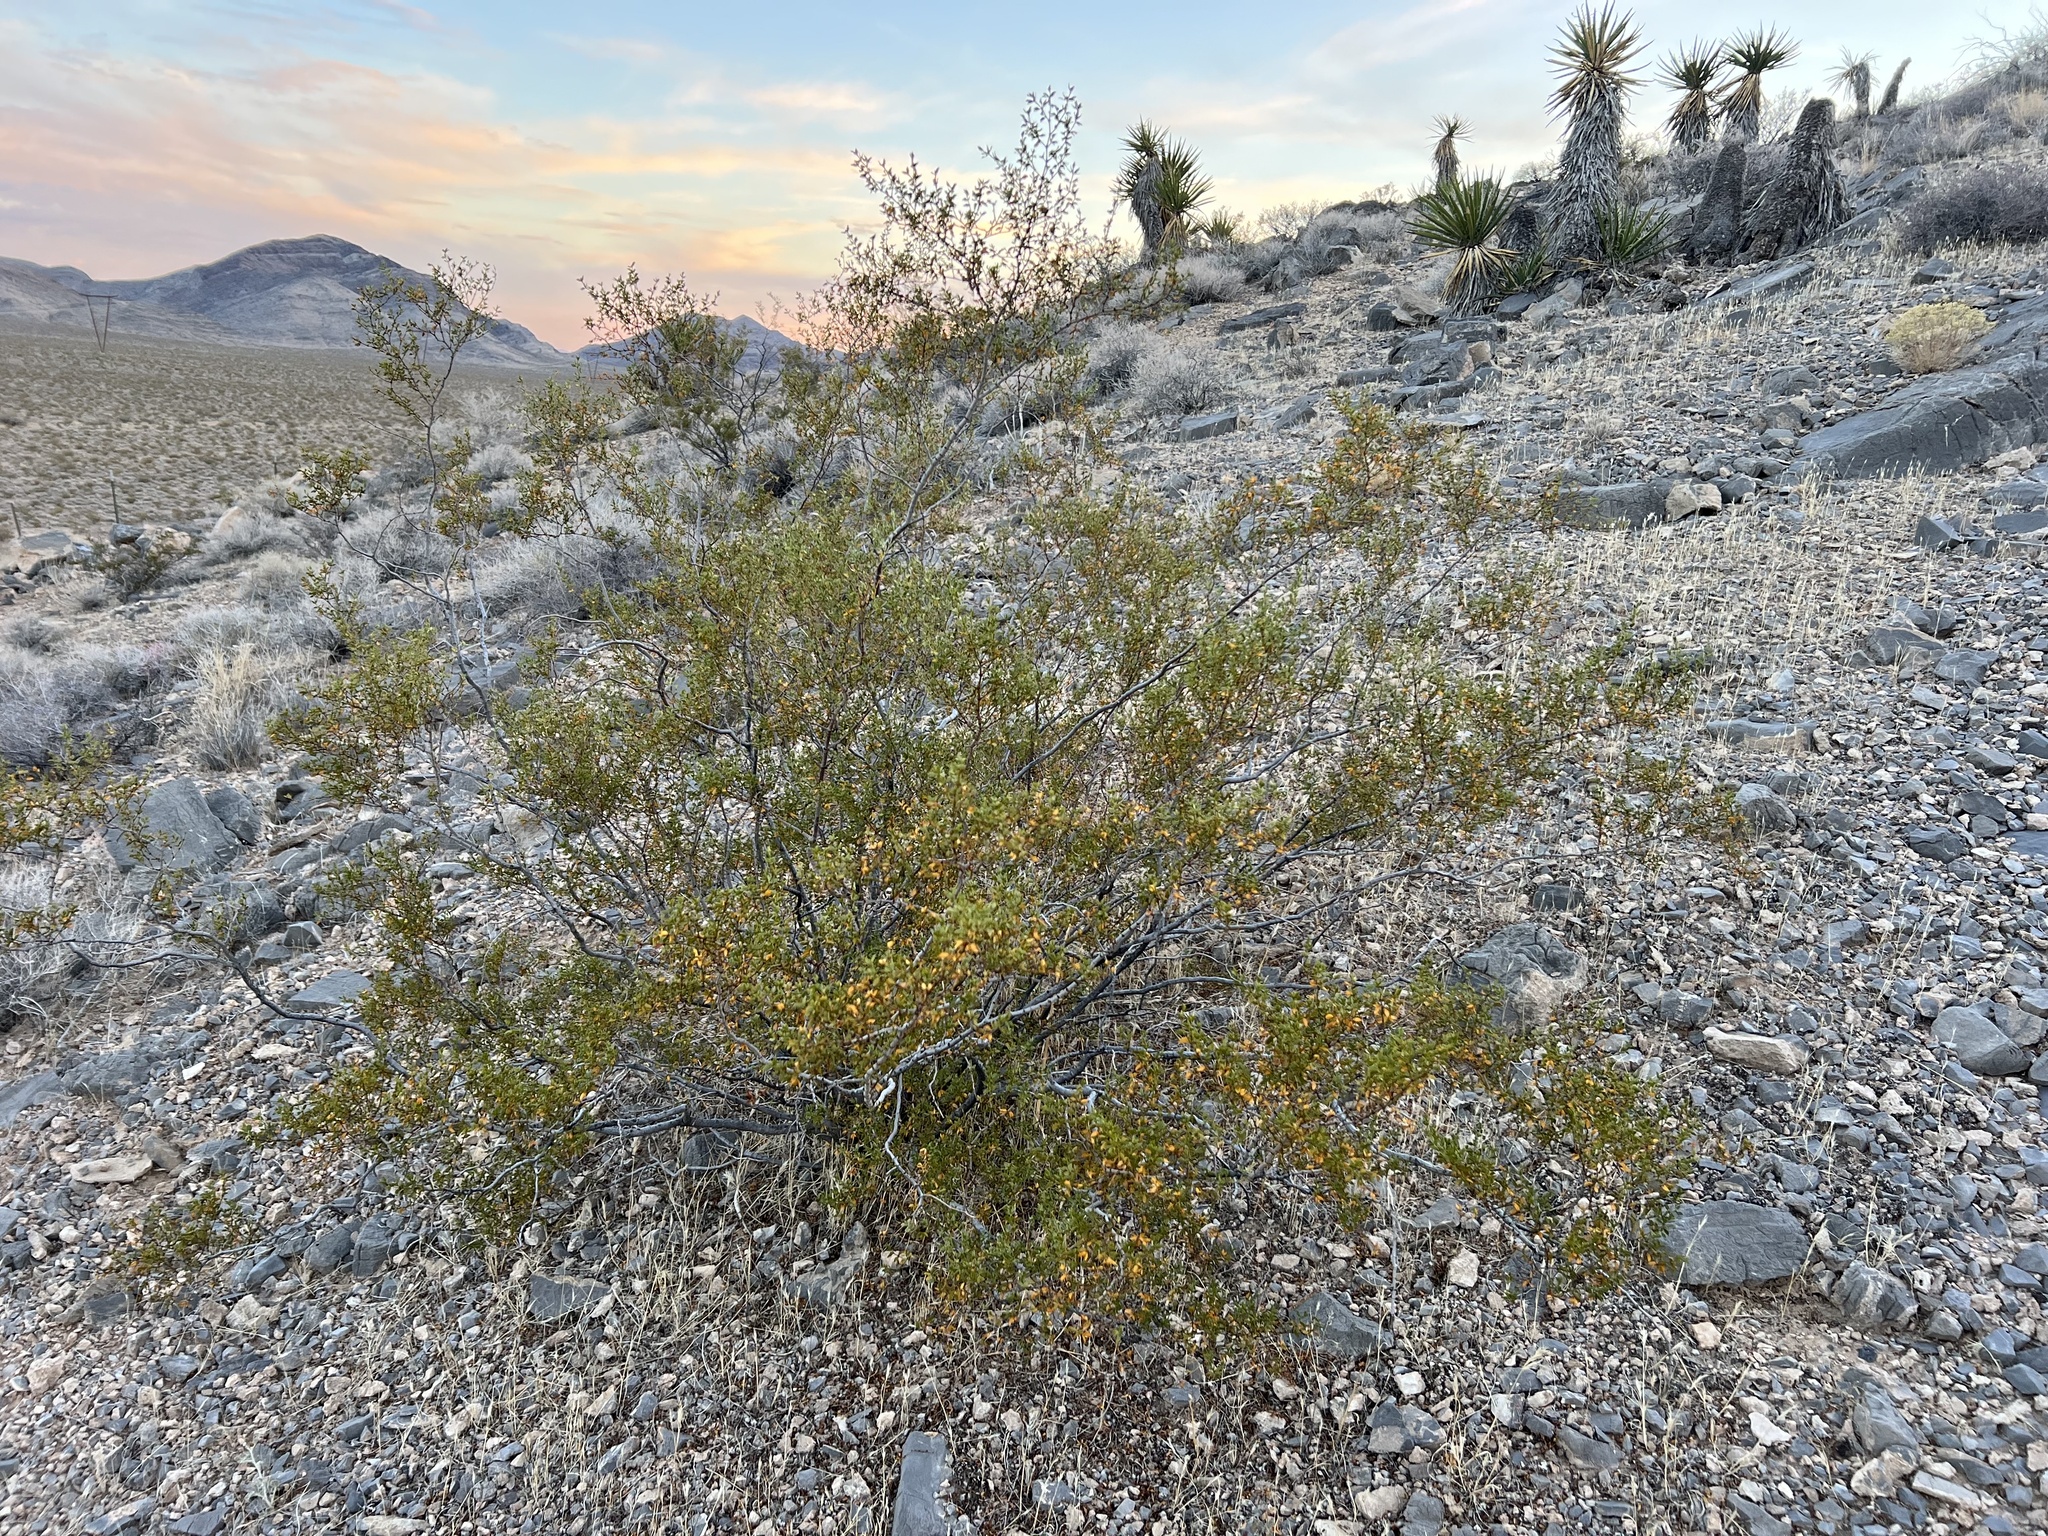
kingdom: Plantae
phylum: Tracheophyta
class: Magnoliopsida
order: Zygophyllales
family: Zygophyllaceae
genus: Larrea
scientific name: Larrea tridentata
